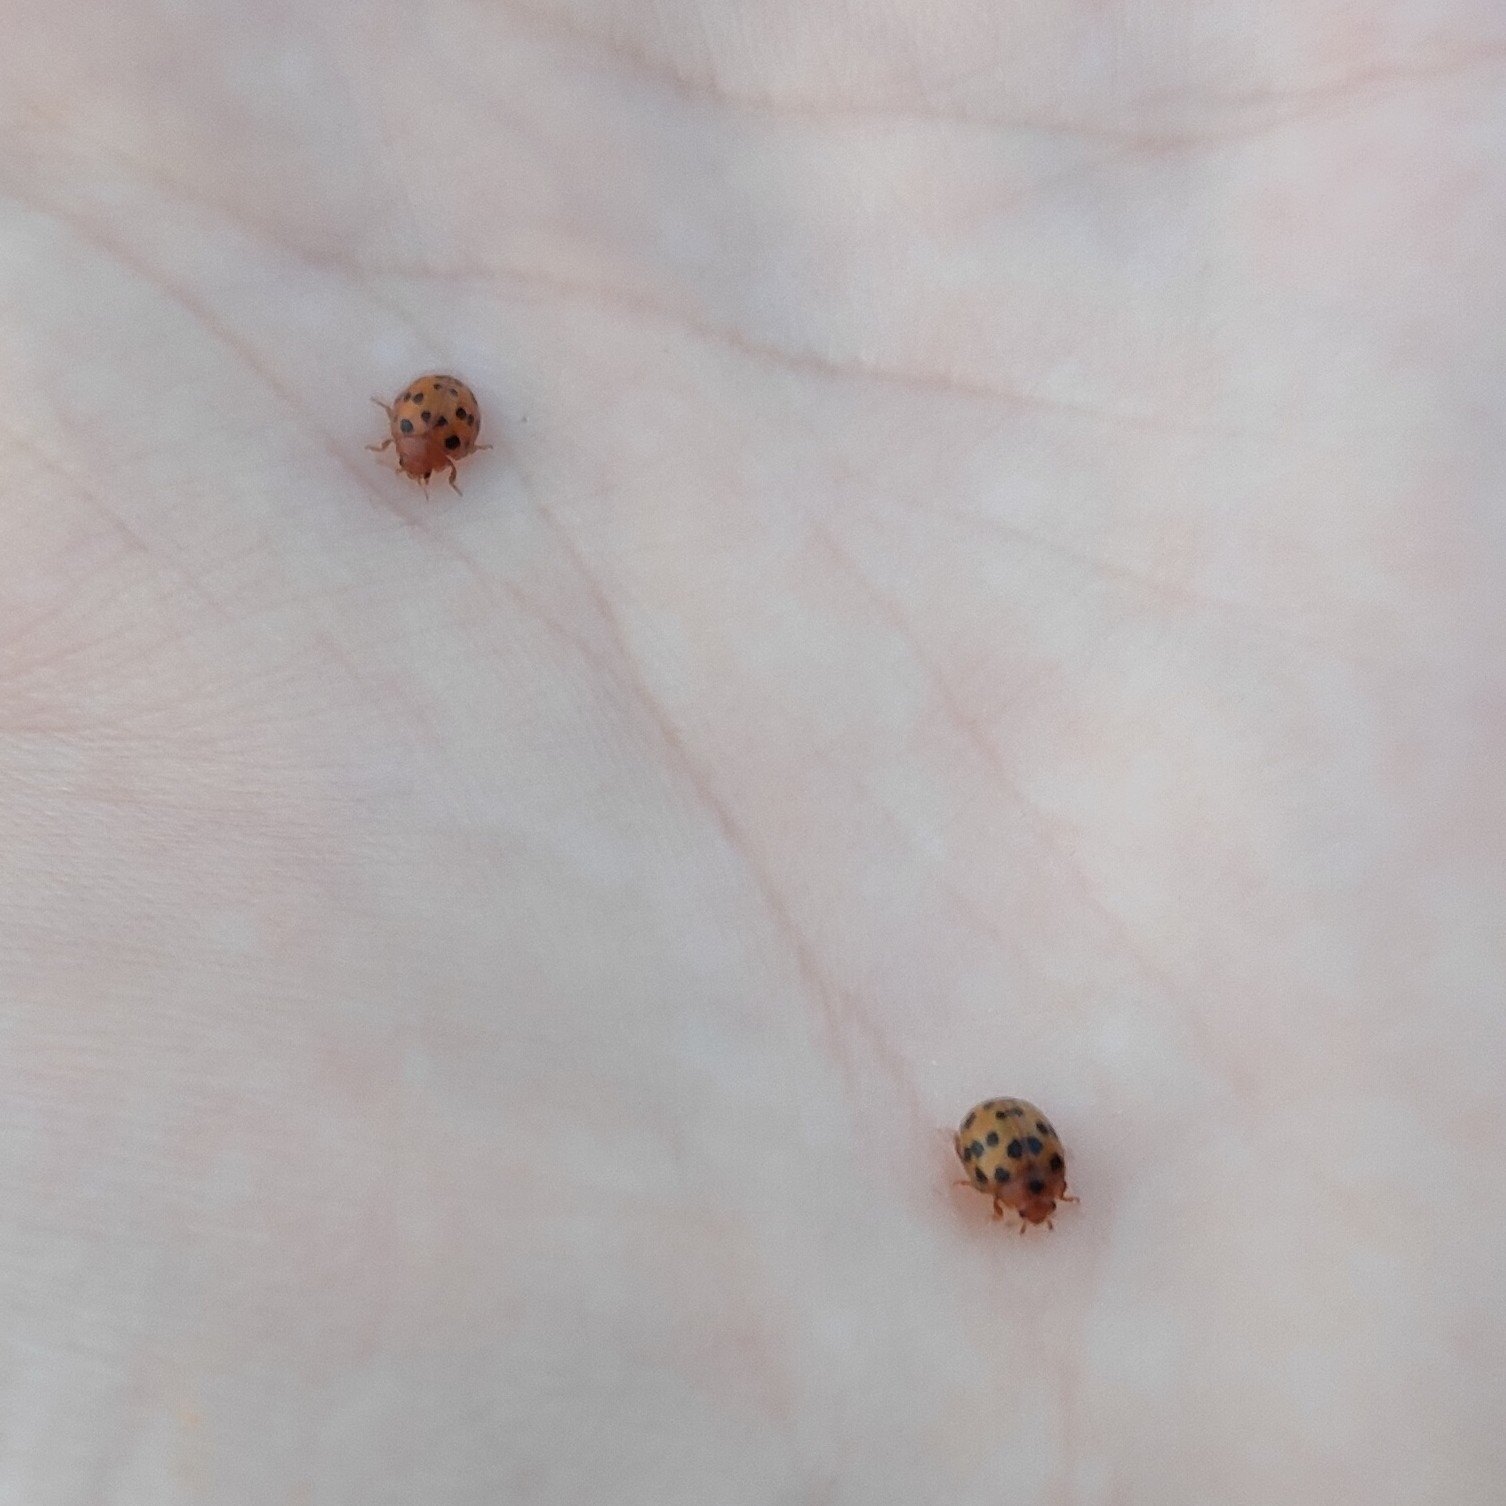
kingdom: Animalia
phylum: Arthropoda
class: Insecta
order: Coleoptera
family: Coccinellidae
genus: Subcoccinella
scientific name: Subcoccinella vigintiquatuorpunctata
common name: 24-spot ladybird
